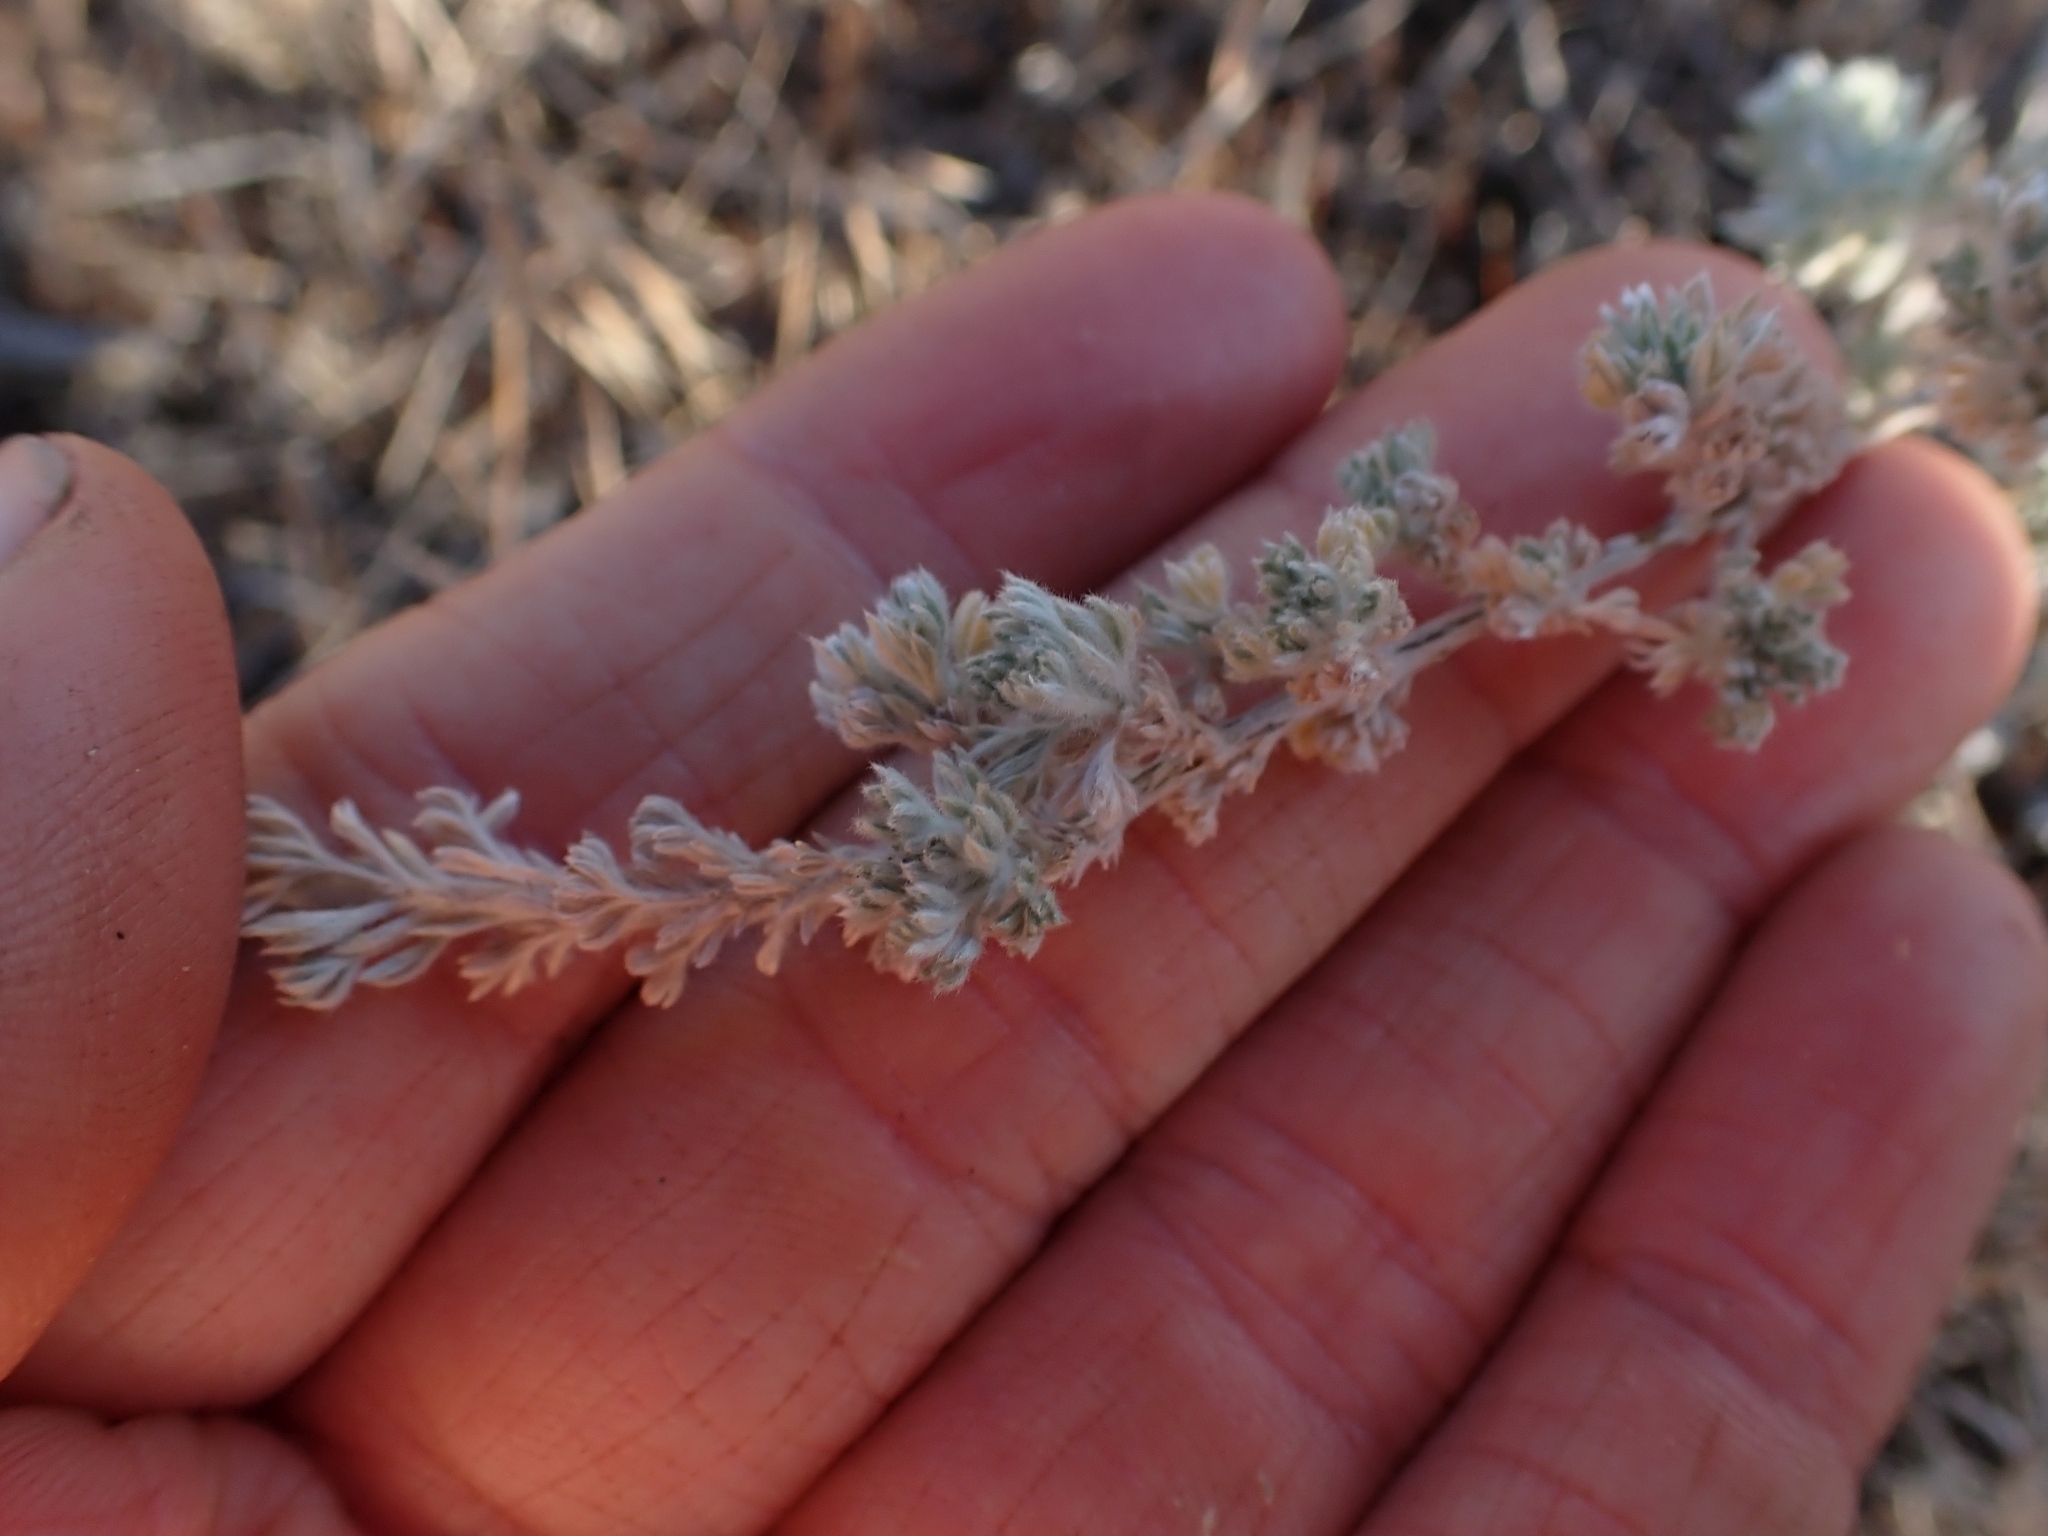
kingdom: Plantae
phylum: Tracheophyta
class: Magnoliopsida
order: Asterales
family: Asteraceae
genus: Artemisia
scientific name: Artemisia frigida
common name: Prairie sagewort
